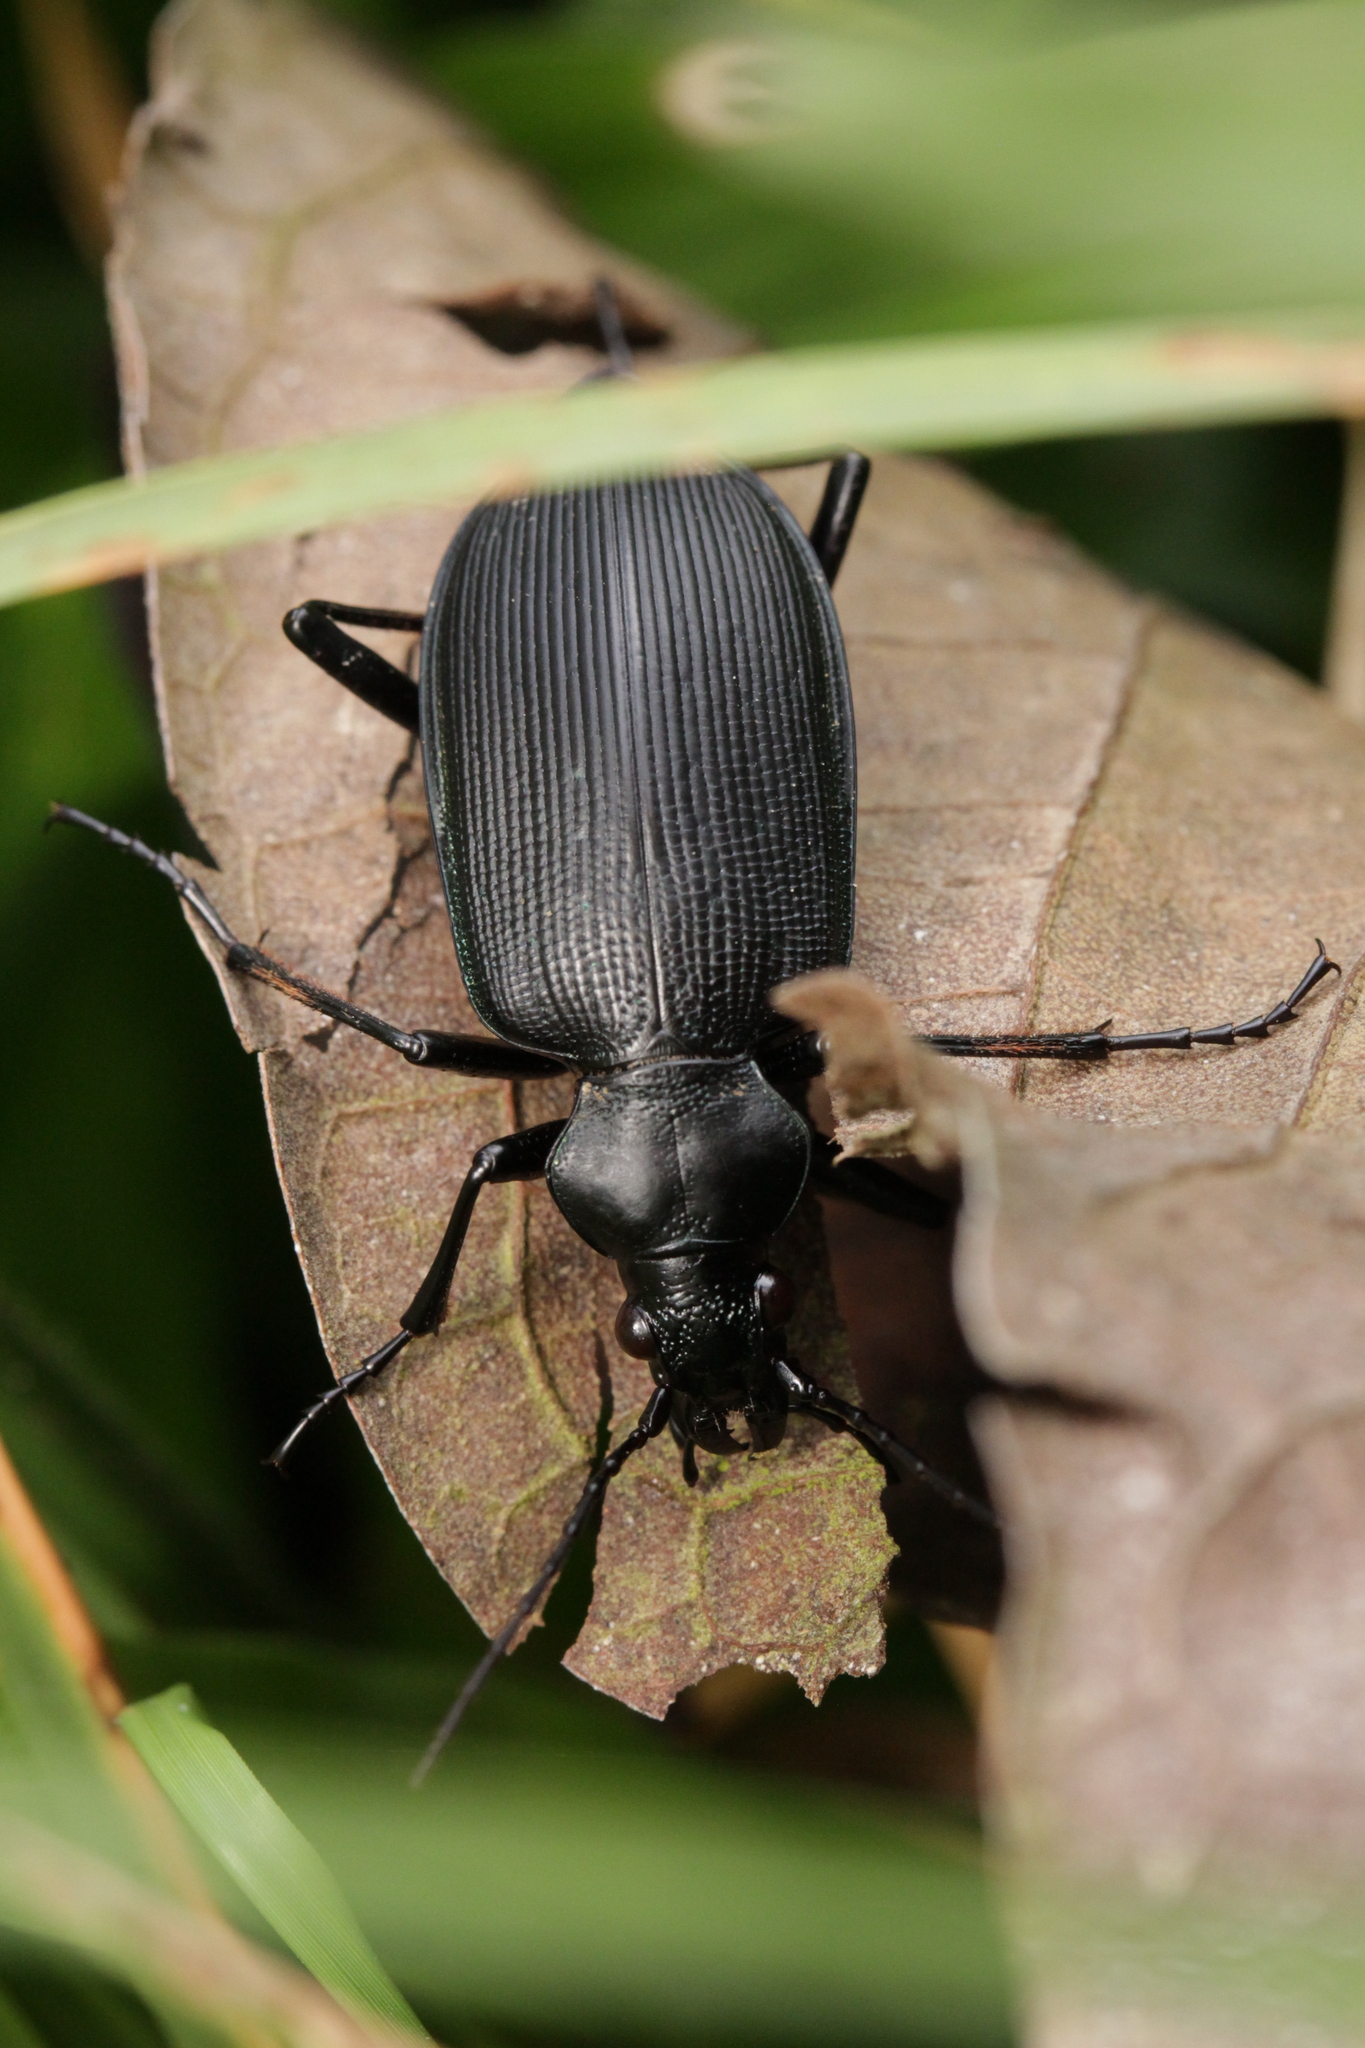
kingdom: Animalia
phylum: Arthropoda
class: Insecta
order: Coleoptera
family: Carabidae
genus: Calosoma
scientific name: Calosoma angulatum
